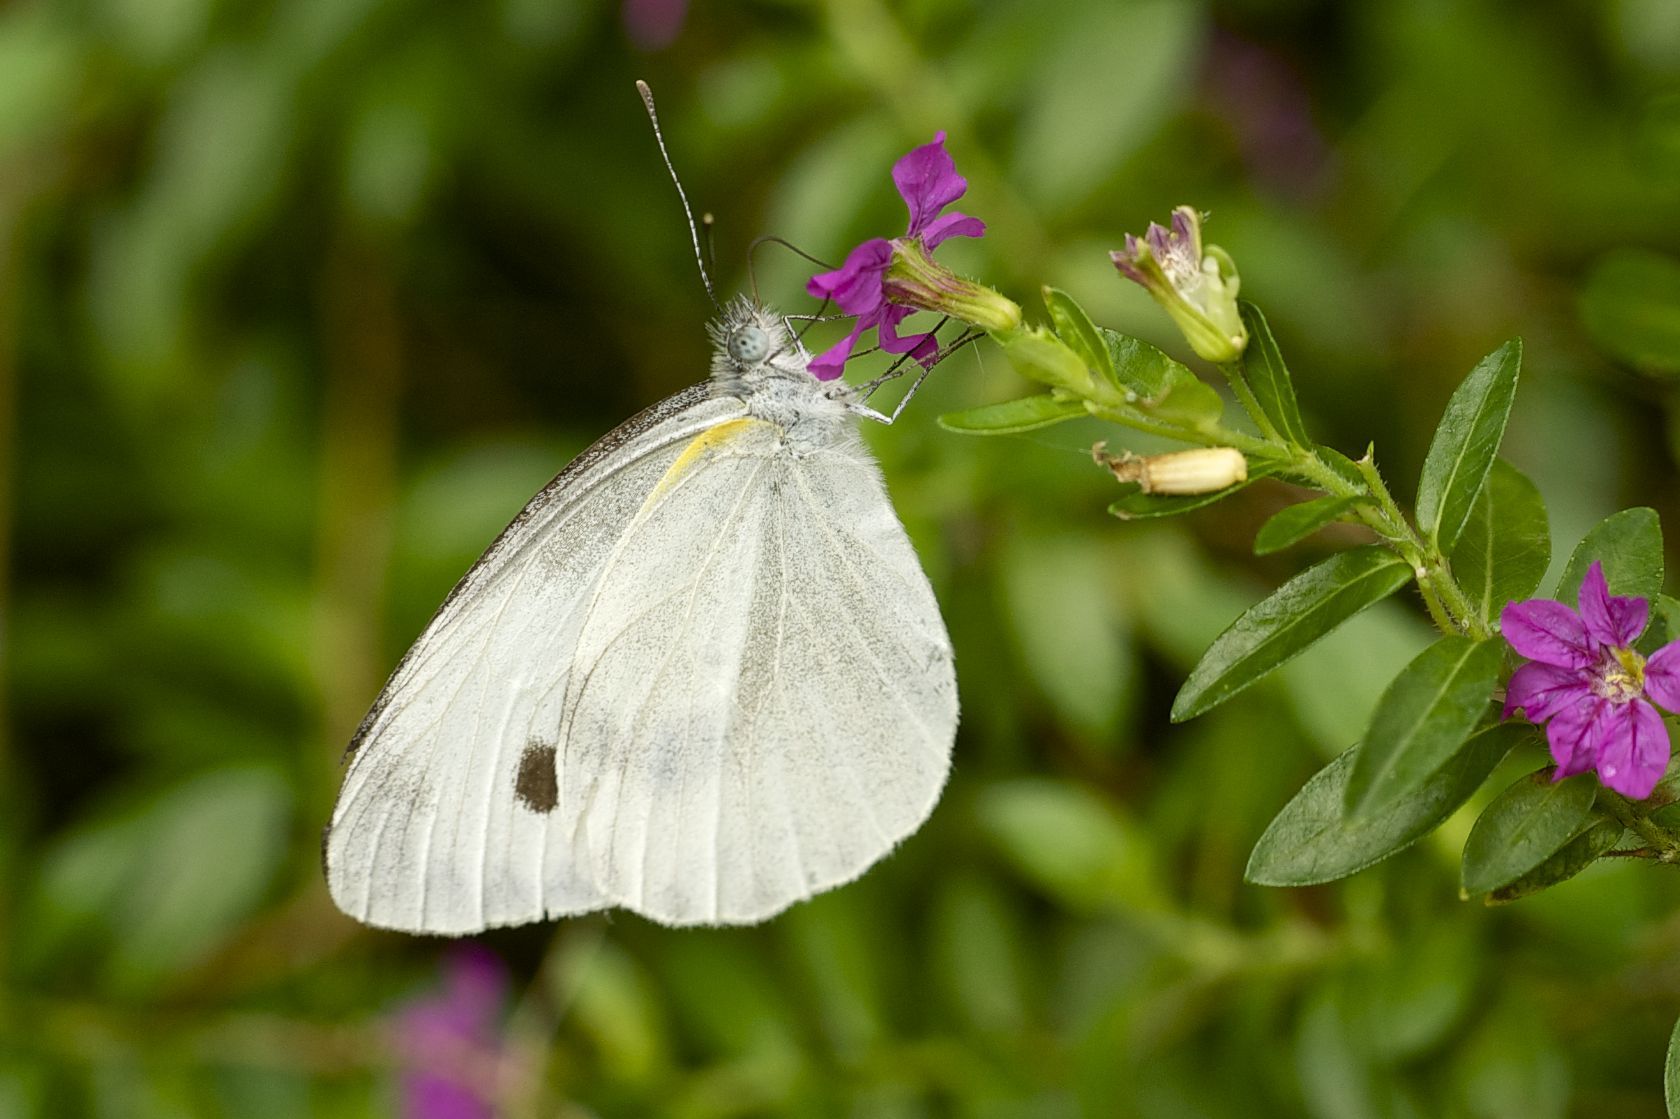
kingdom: Animalia
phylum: Arthropoda
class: Insecta
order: Lepidoptera
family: Pieridae
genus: Pieris
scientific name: Pieris canidia
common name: Indian cabbage white
